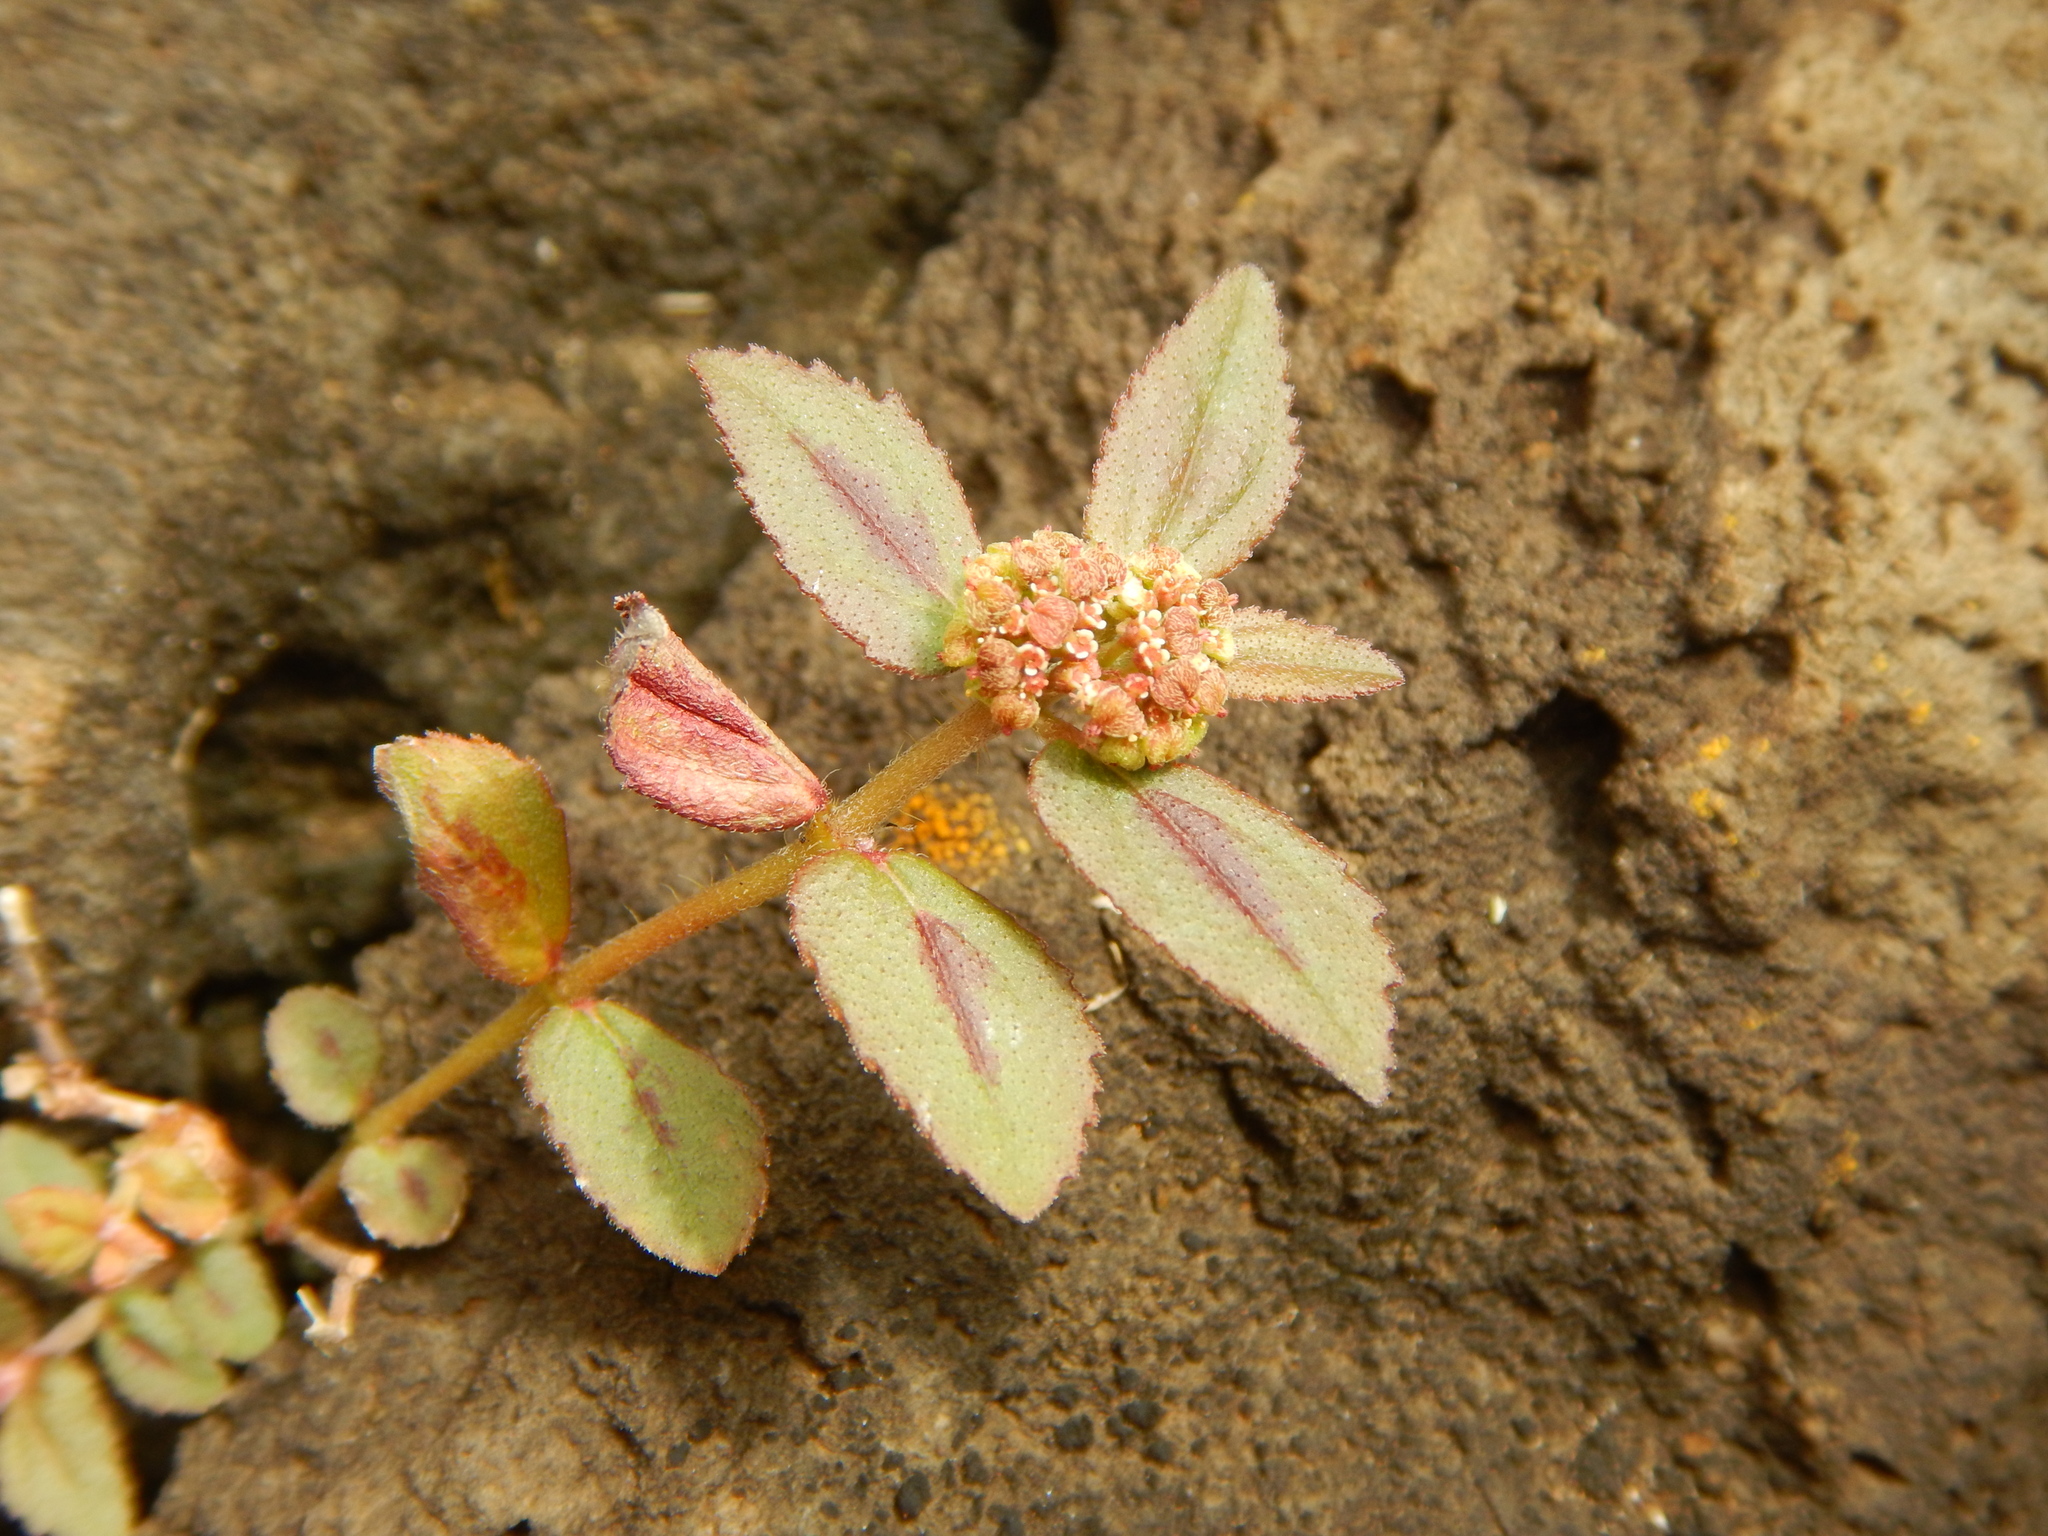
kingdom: Plantae
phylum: Tracheophyta
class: Magnoliopsida
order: Malpighiales
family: Euphorbiaceae
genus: Euphorbia
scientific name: Euphorbia hirta
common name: Pillpod sandmat
